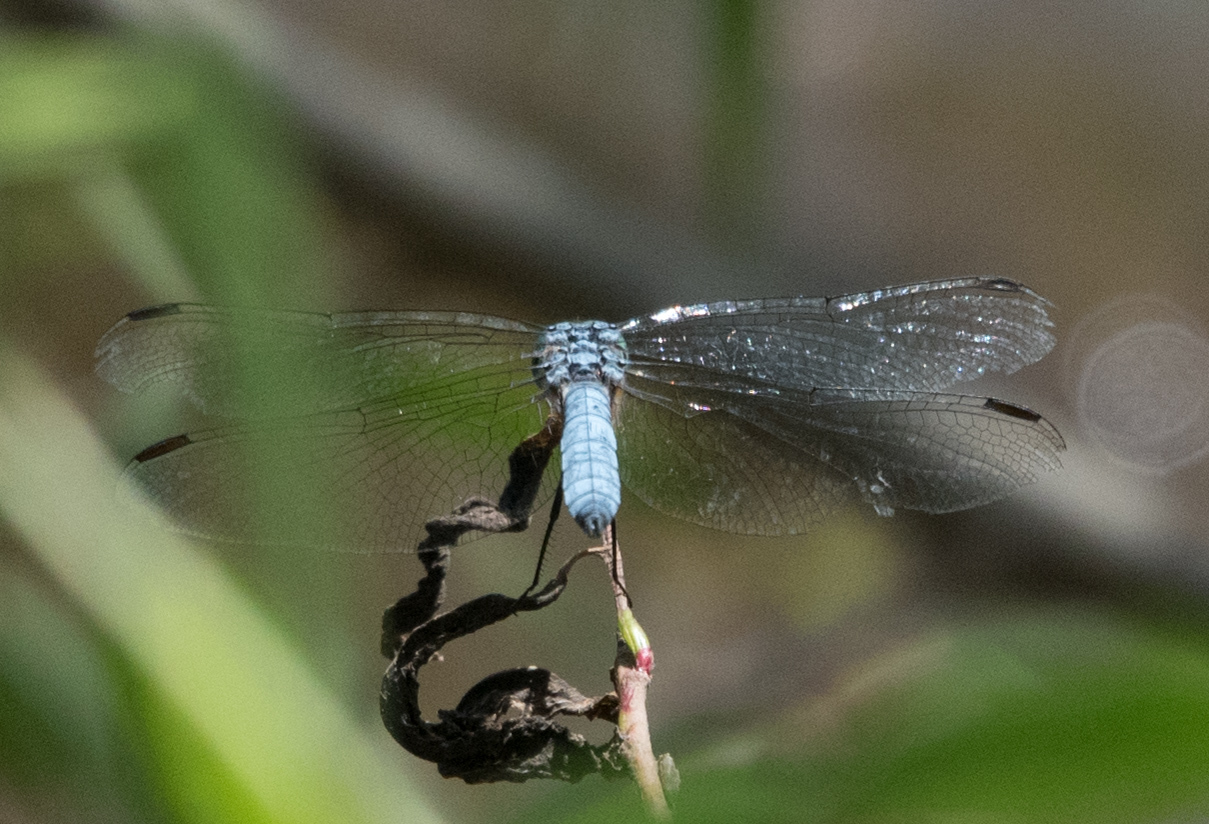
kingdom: Animalia
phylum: Arthropoda
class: Insecta
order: Odonata
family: Libellulidae
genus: Pachydiplax
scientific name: Pachydiplax longipennis
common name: Blue dasher
